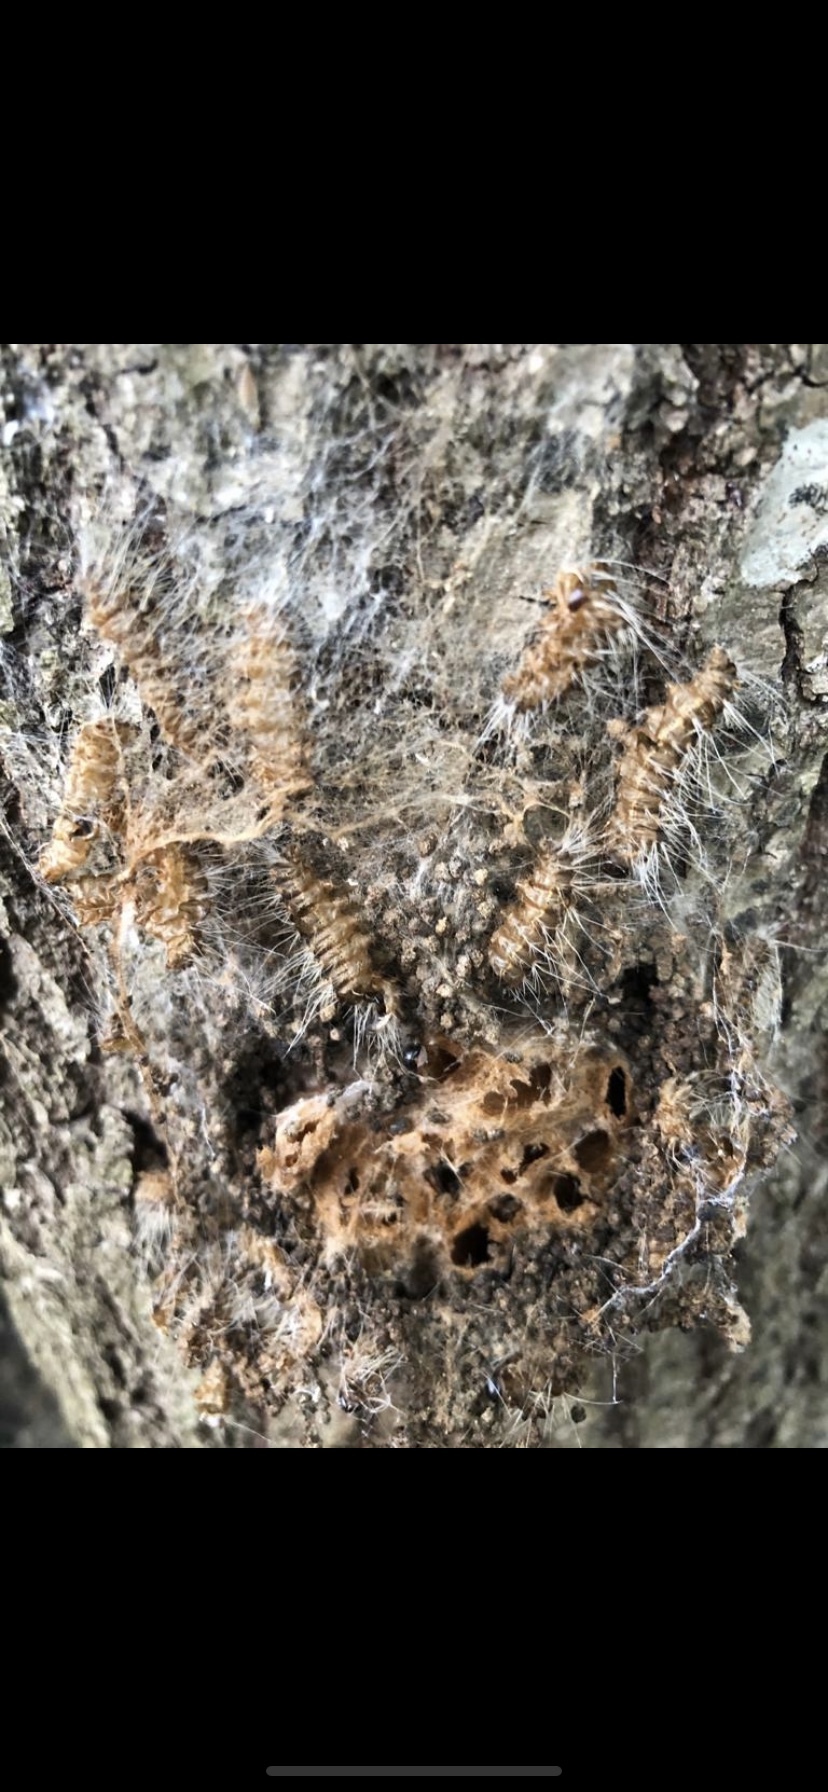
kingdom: Animalia
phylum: Arthropoda
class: Insecta
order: Lepidoptera
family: Notodontidae
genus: Thaumetopoea
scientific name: Thaumetopoea processionea
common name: Oak processionea
